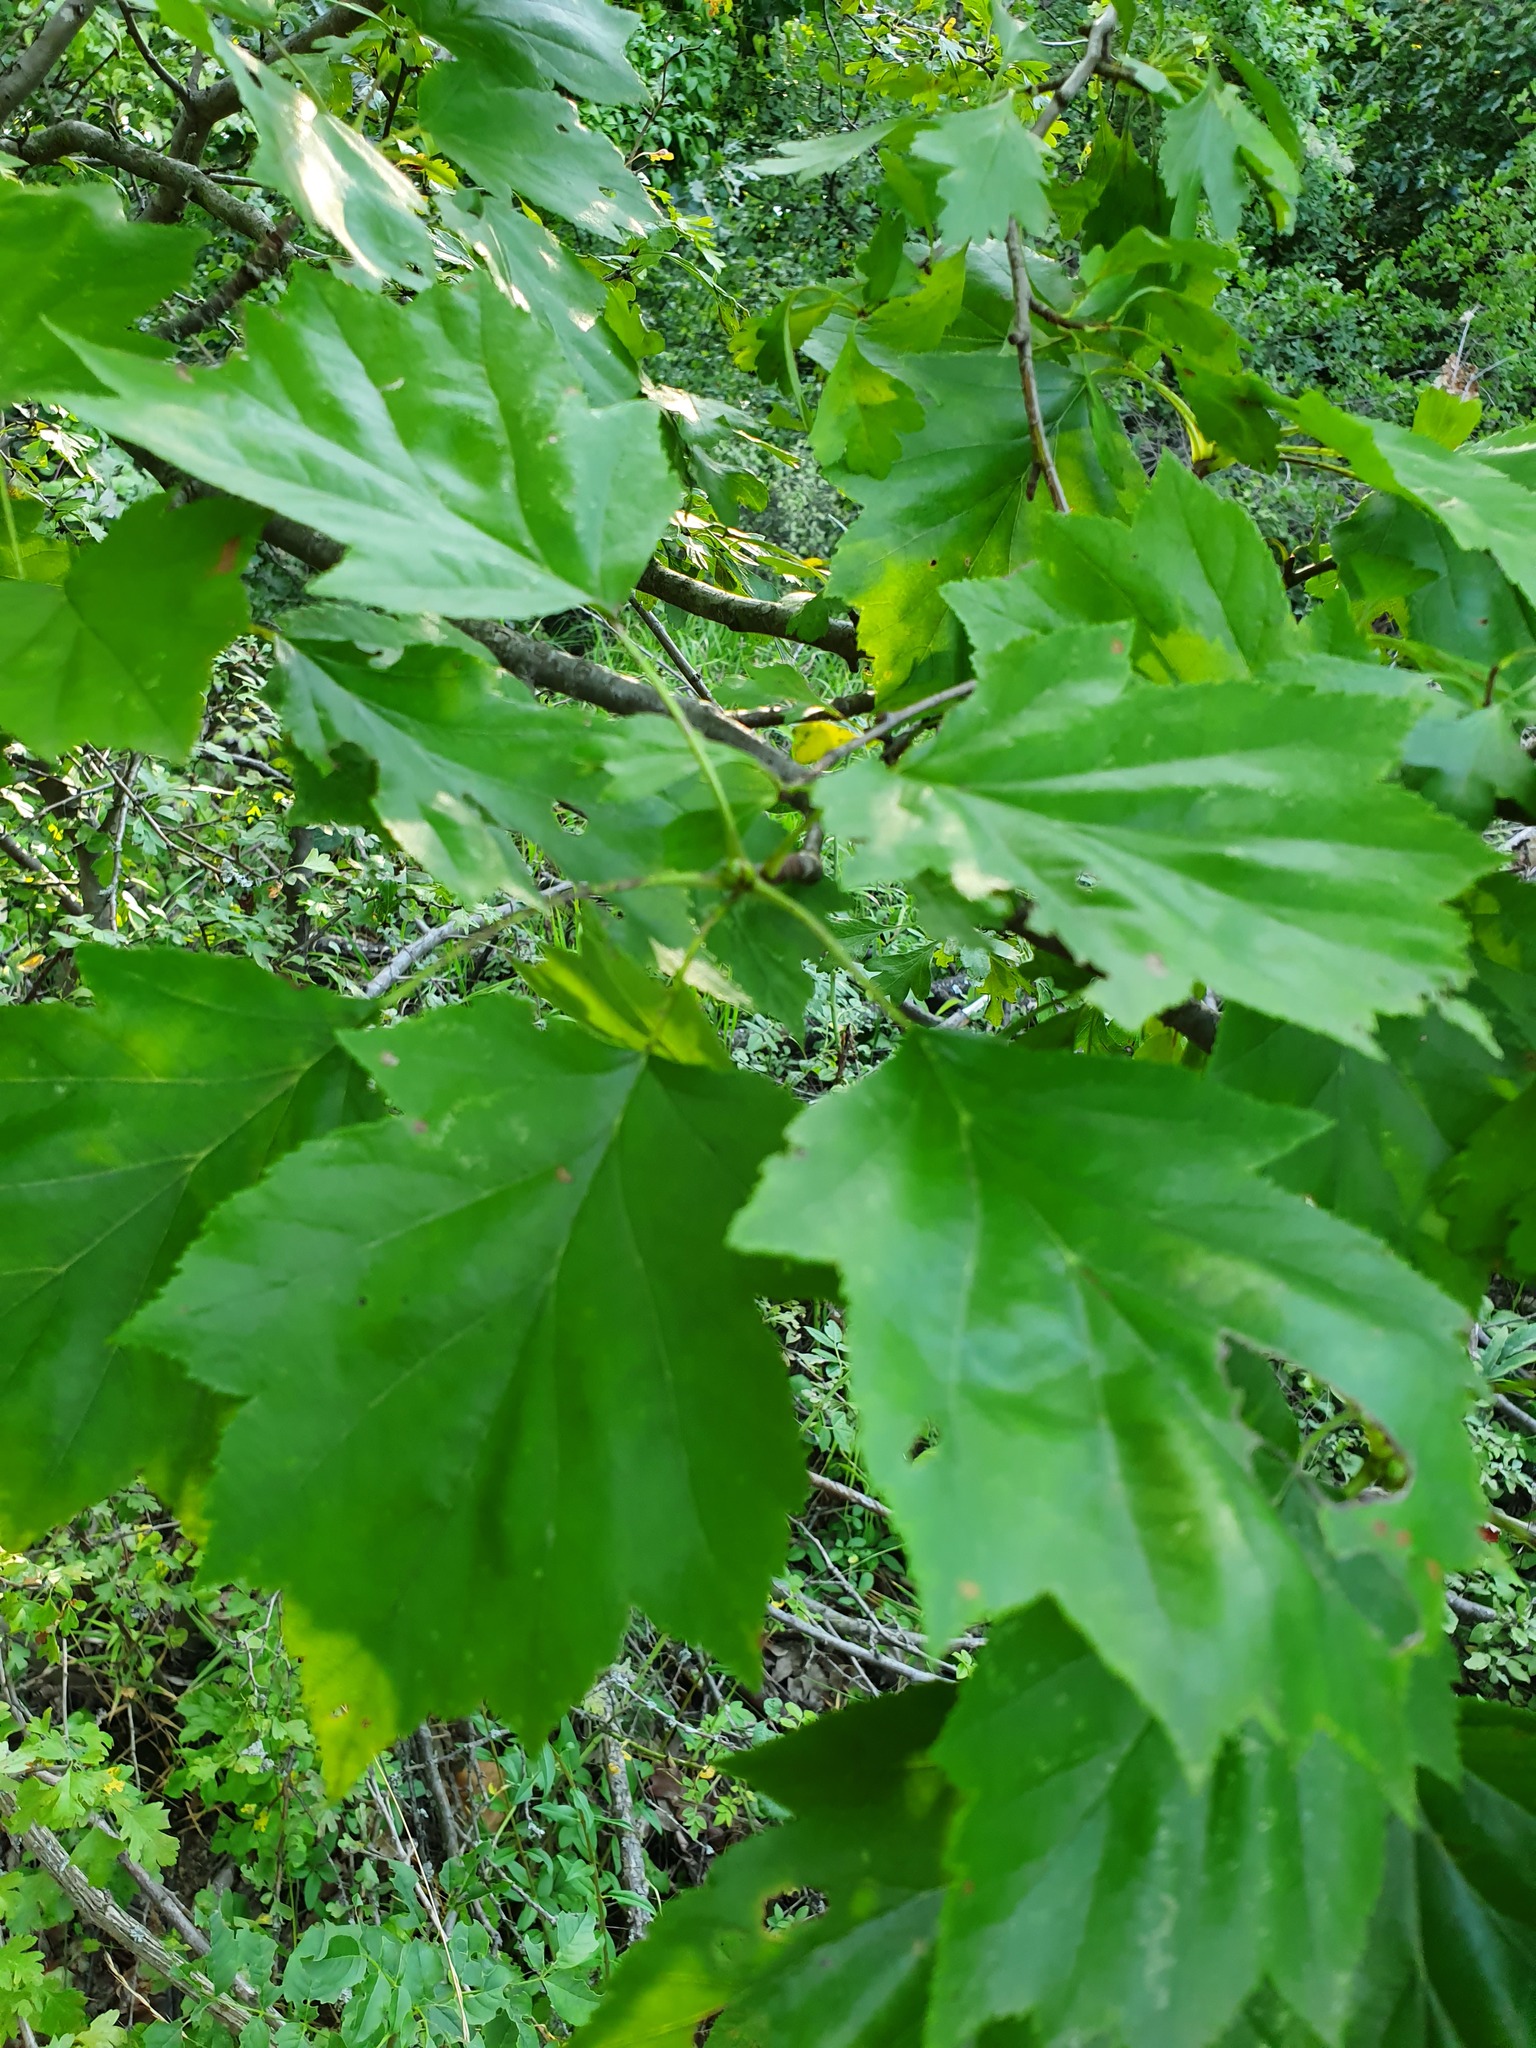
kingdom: Plantae
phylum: Tracheophyta
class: Magnoliopsida
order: Rosales
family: Rosaceae
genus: Torminalis
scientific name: Torminalis glaberrima
